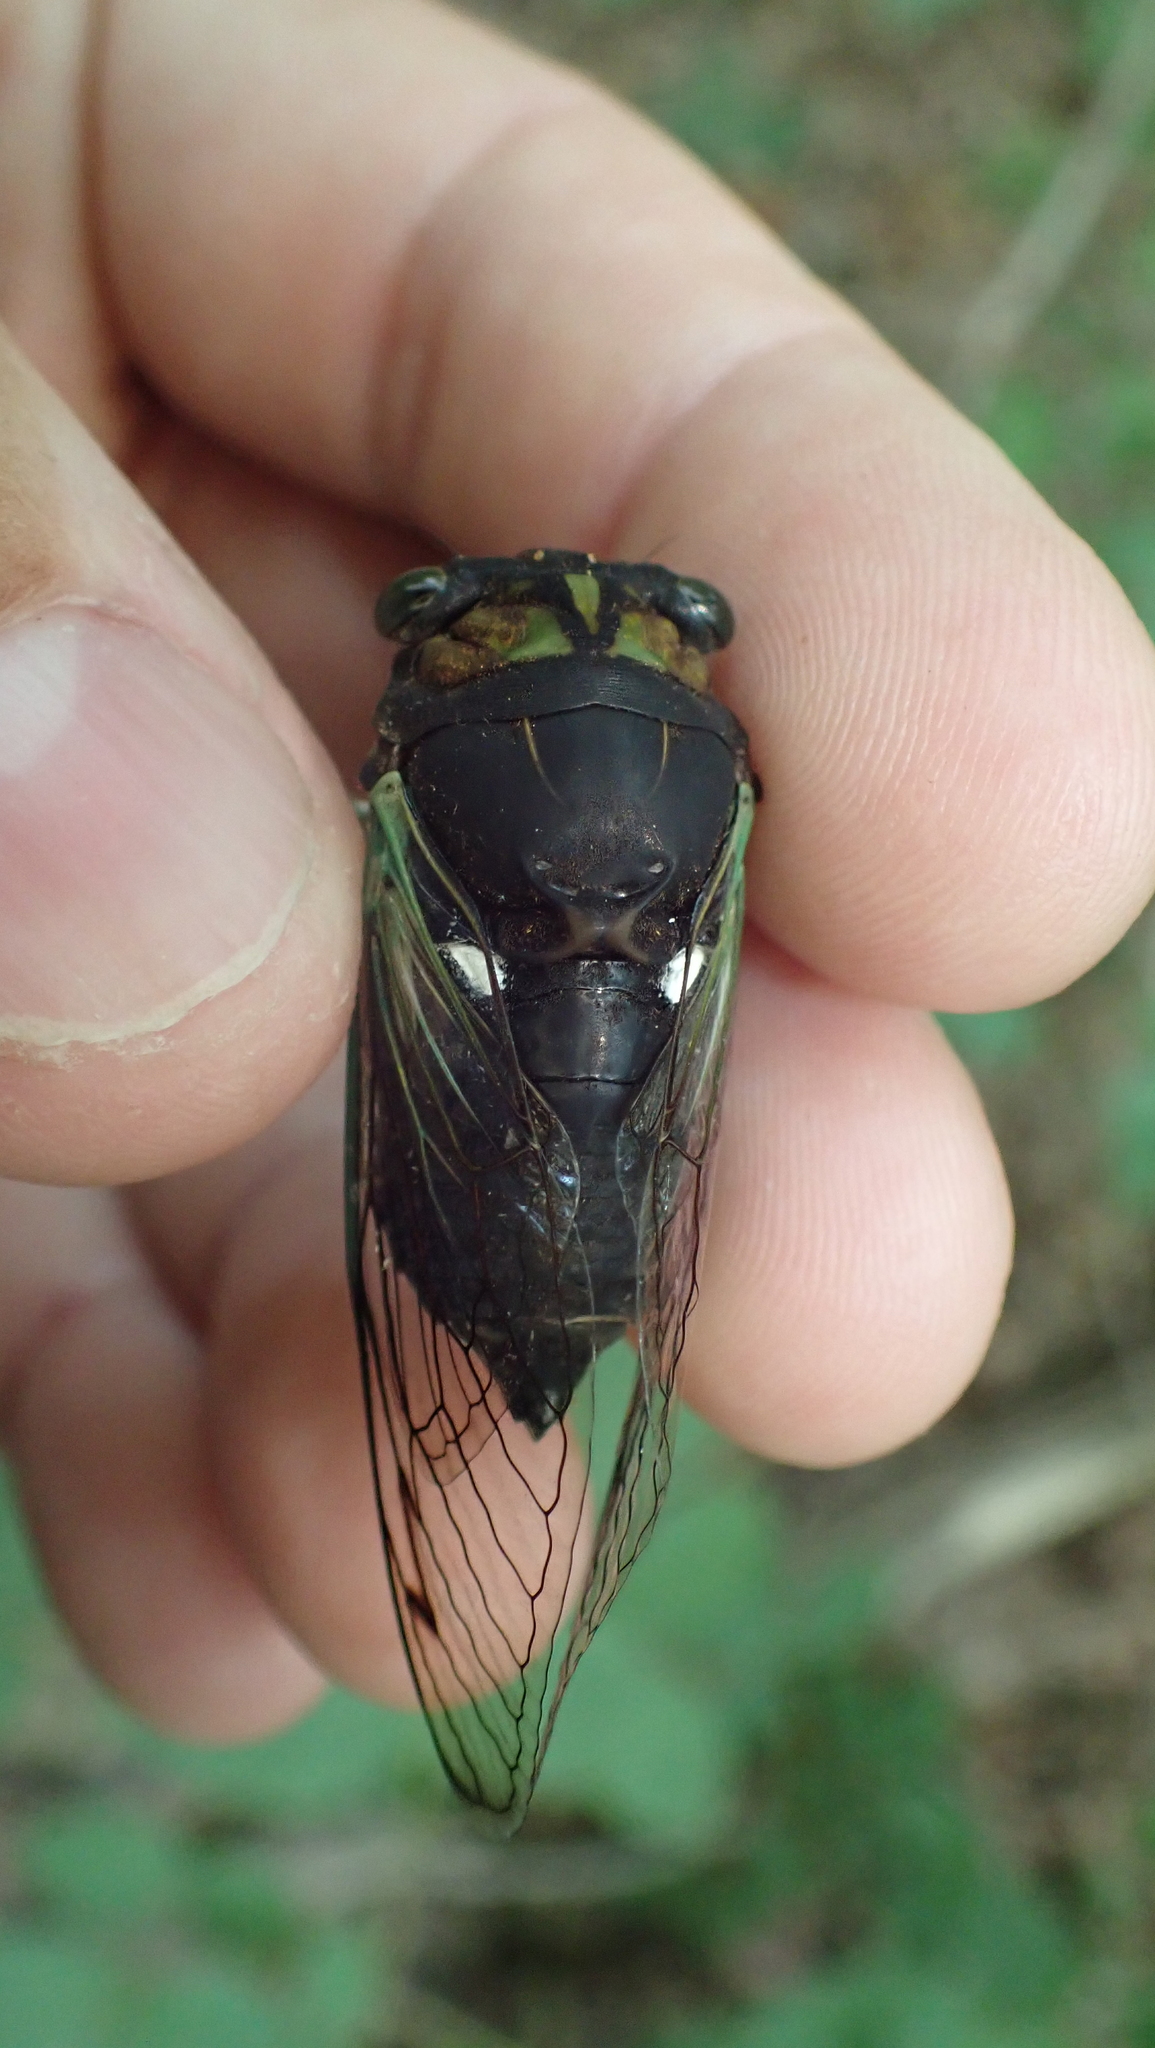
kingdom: Animalia
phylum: Arthropoda
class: Insecta
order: Hemiptera
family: Cicadidae
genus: Neotibicen
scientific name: Neotibicen tibicen
